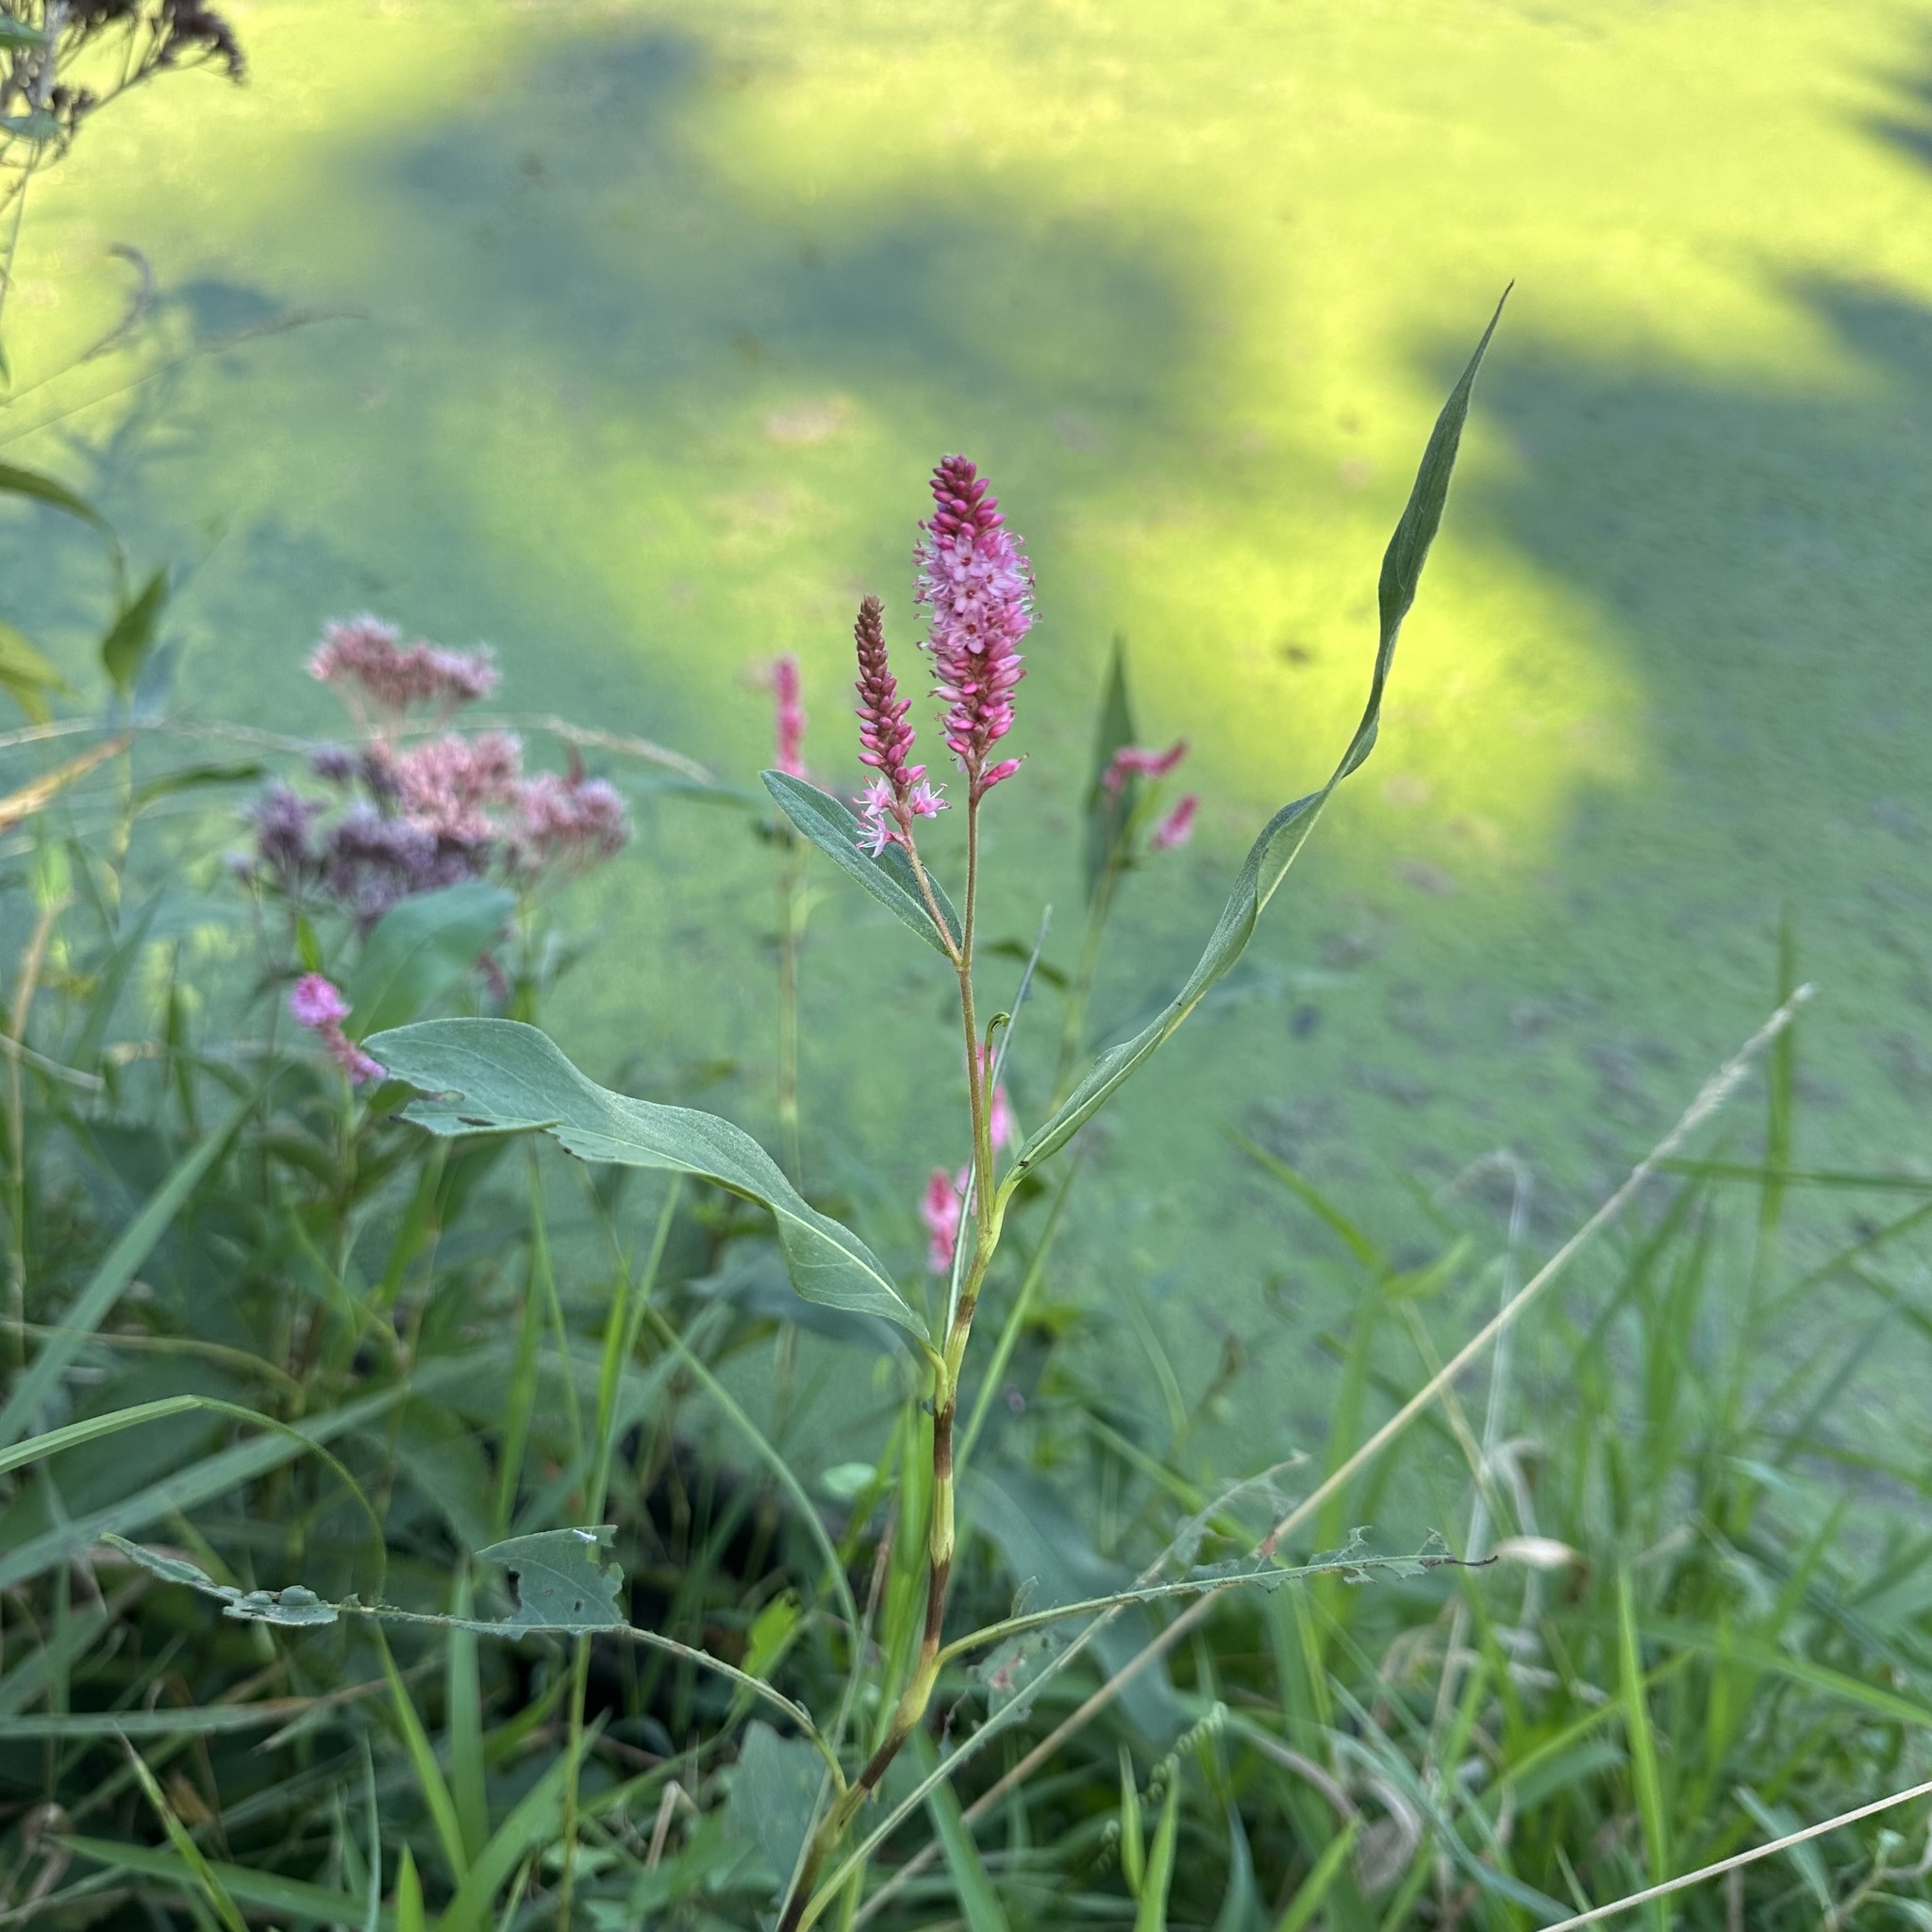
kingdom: Plantae
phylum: Tracheophyta
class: Magnoliopsida
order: Caryophyllales
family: Polygonaceae
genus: Persicaria
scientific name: Persicaria amphibia
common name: Amphibious bistort
